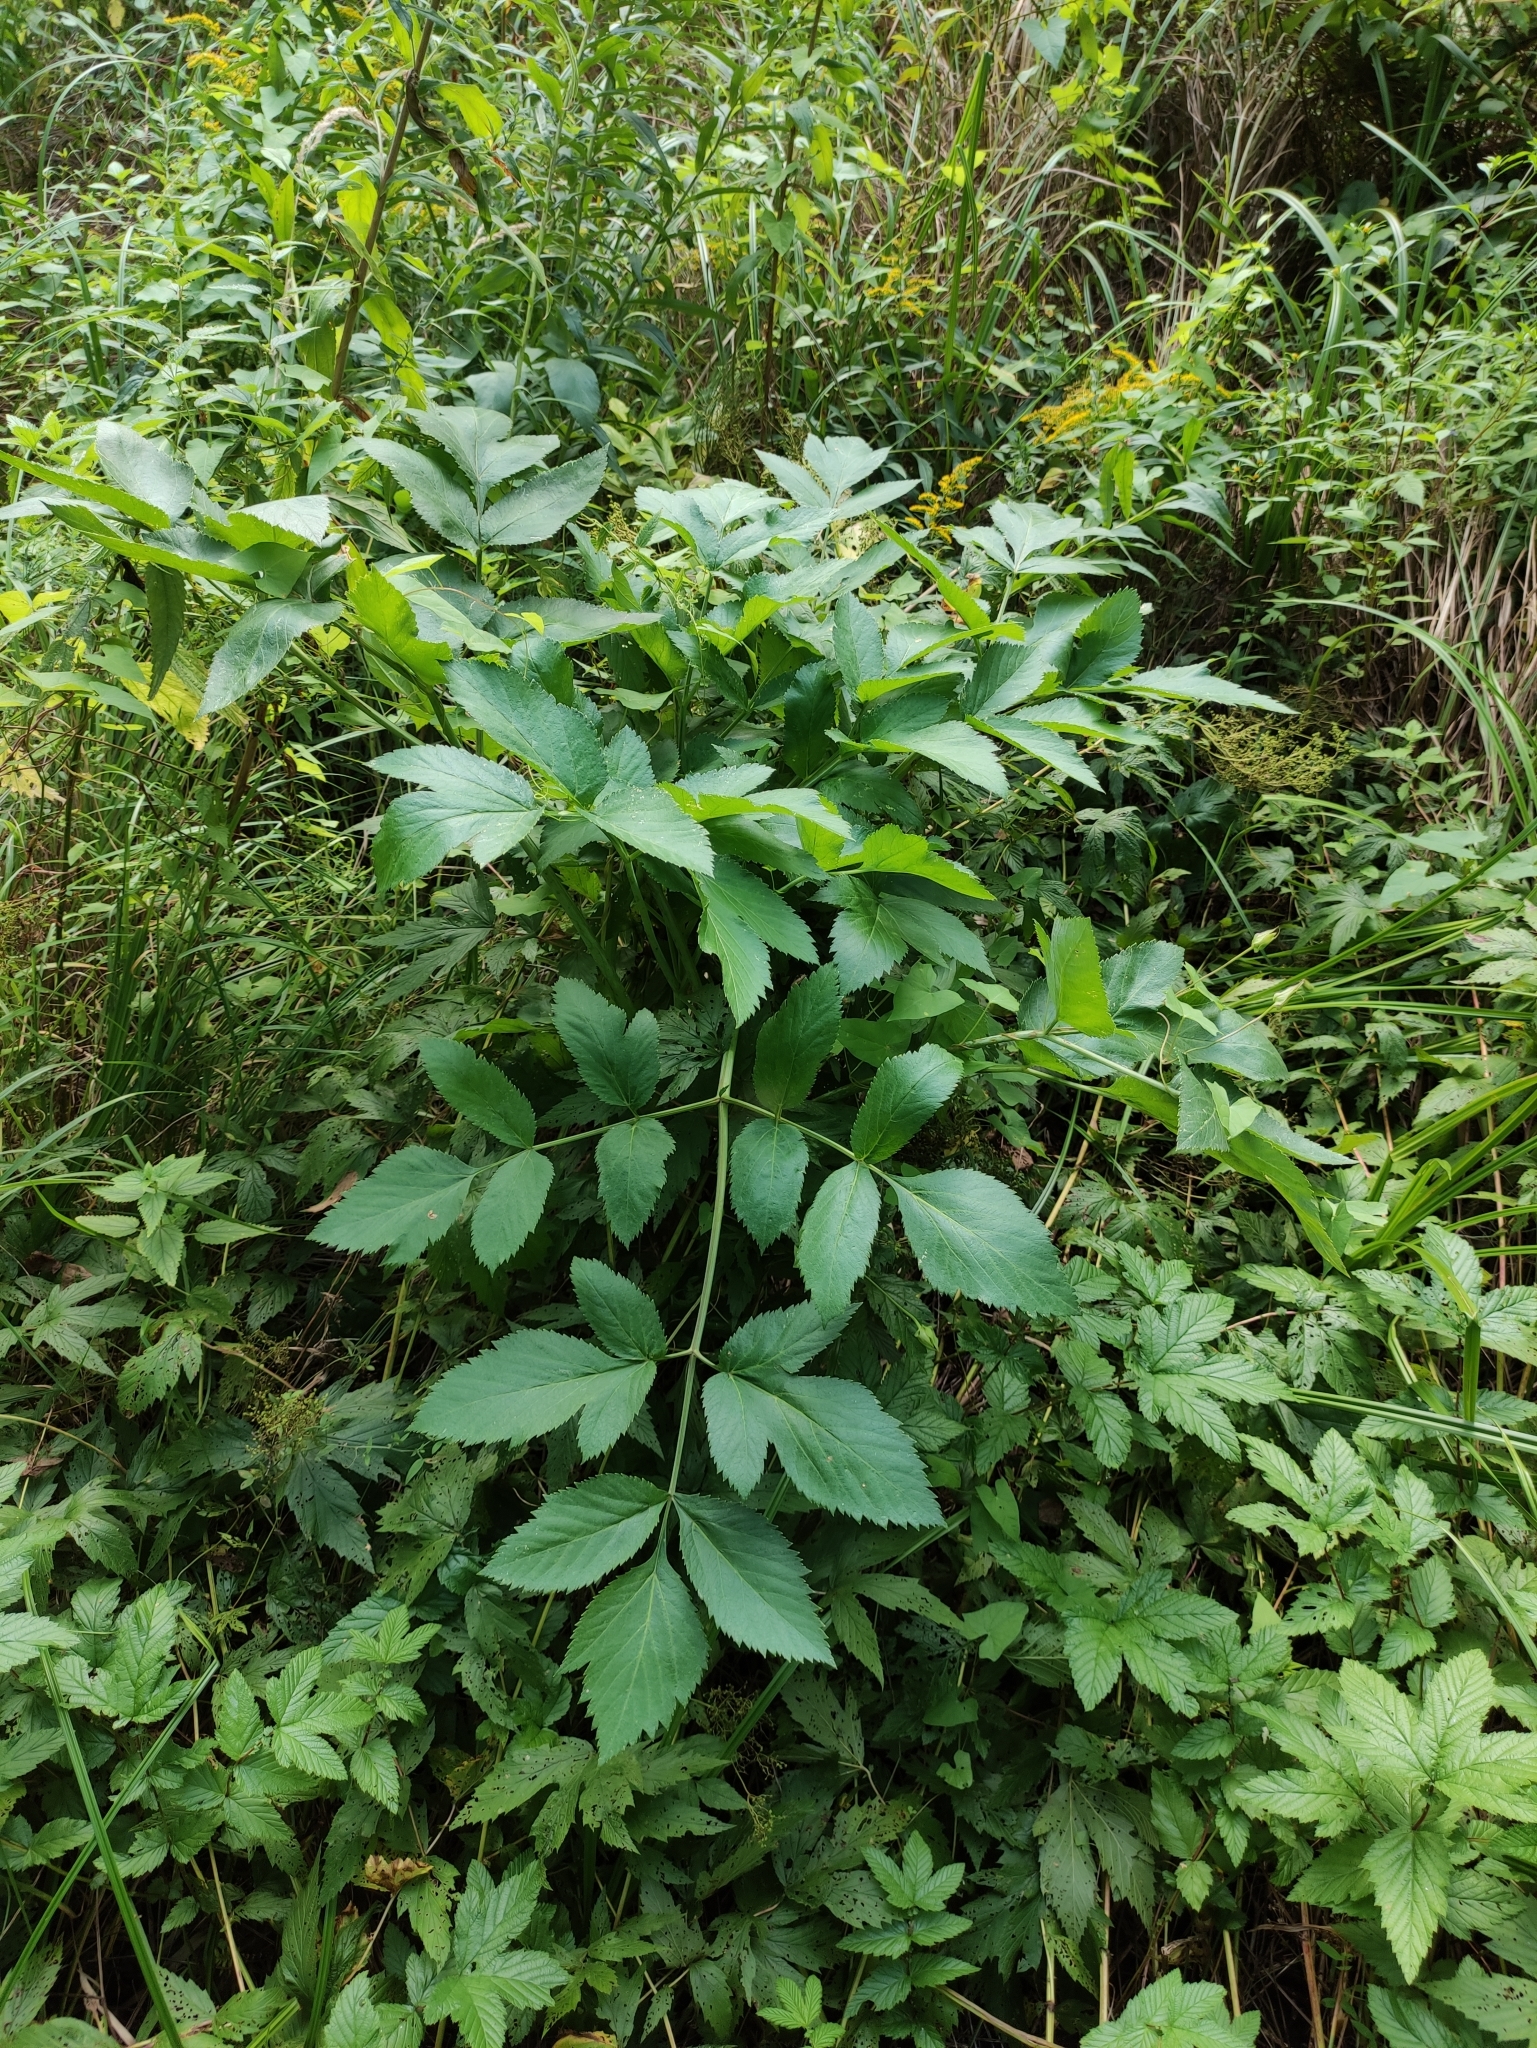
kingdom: Plantae
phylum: Tracheophyta
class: Magnoliopsida
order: Apiales
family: Apiaceae
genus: Angelica
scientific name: Angelica archangelica
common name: Garden angelica
